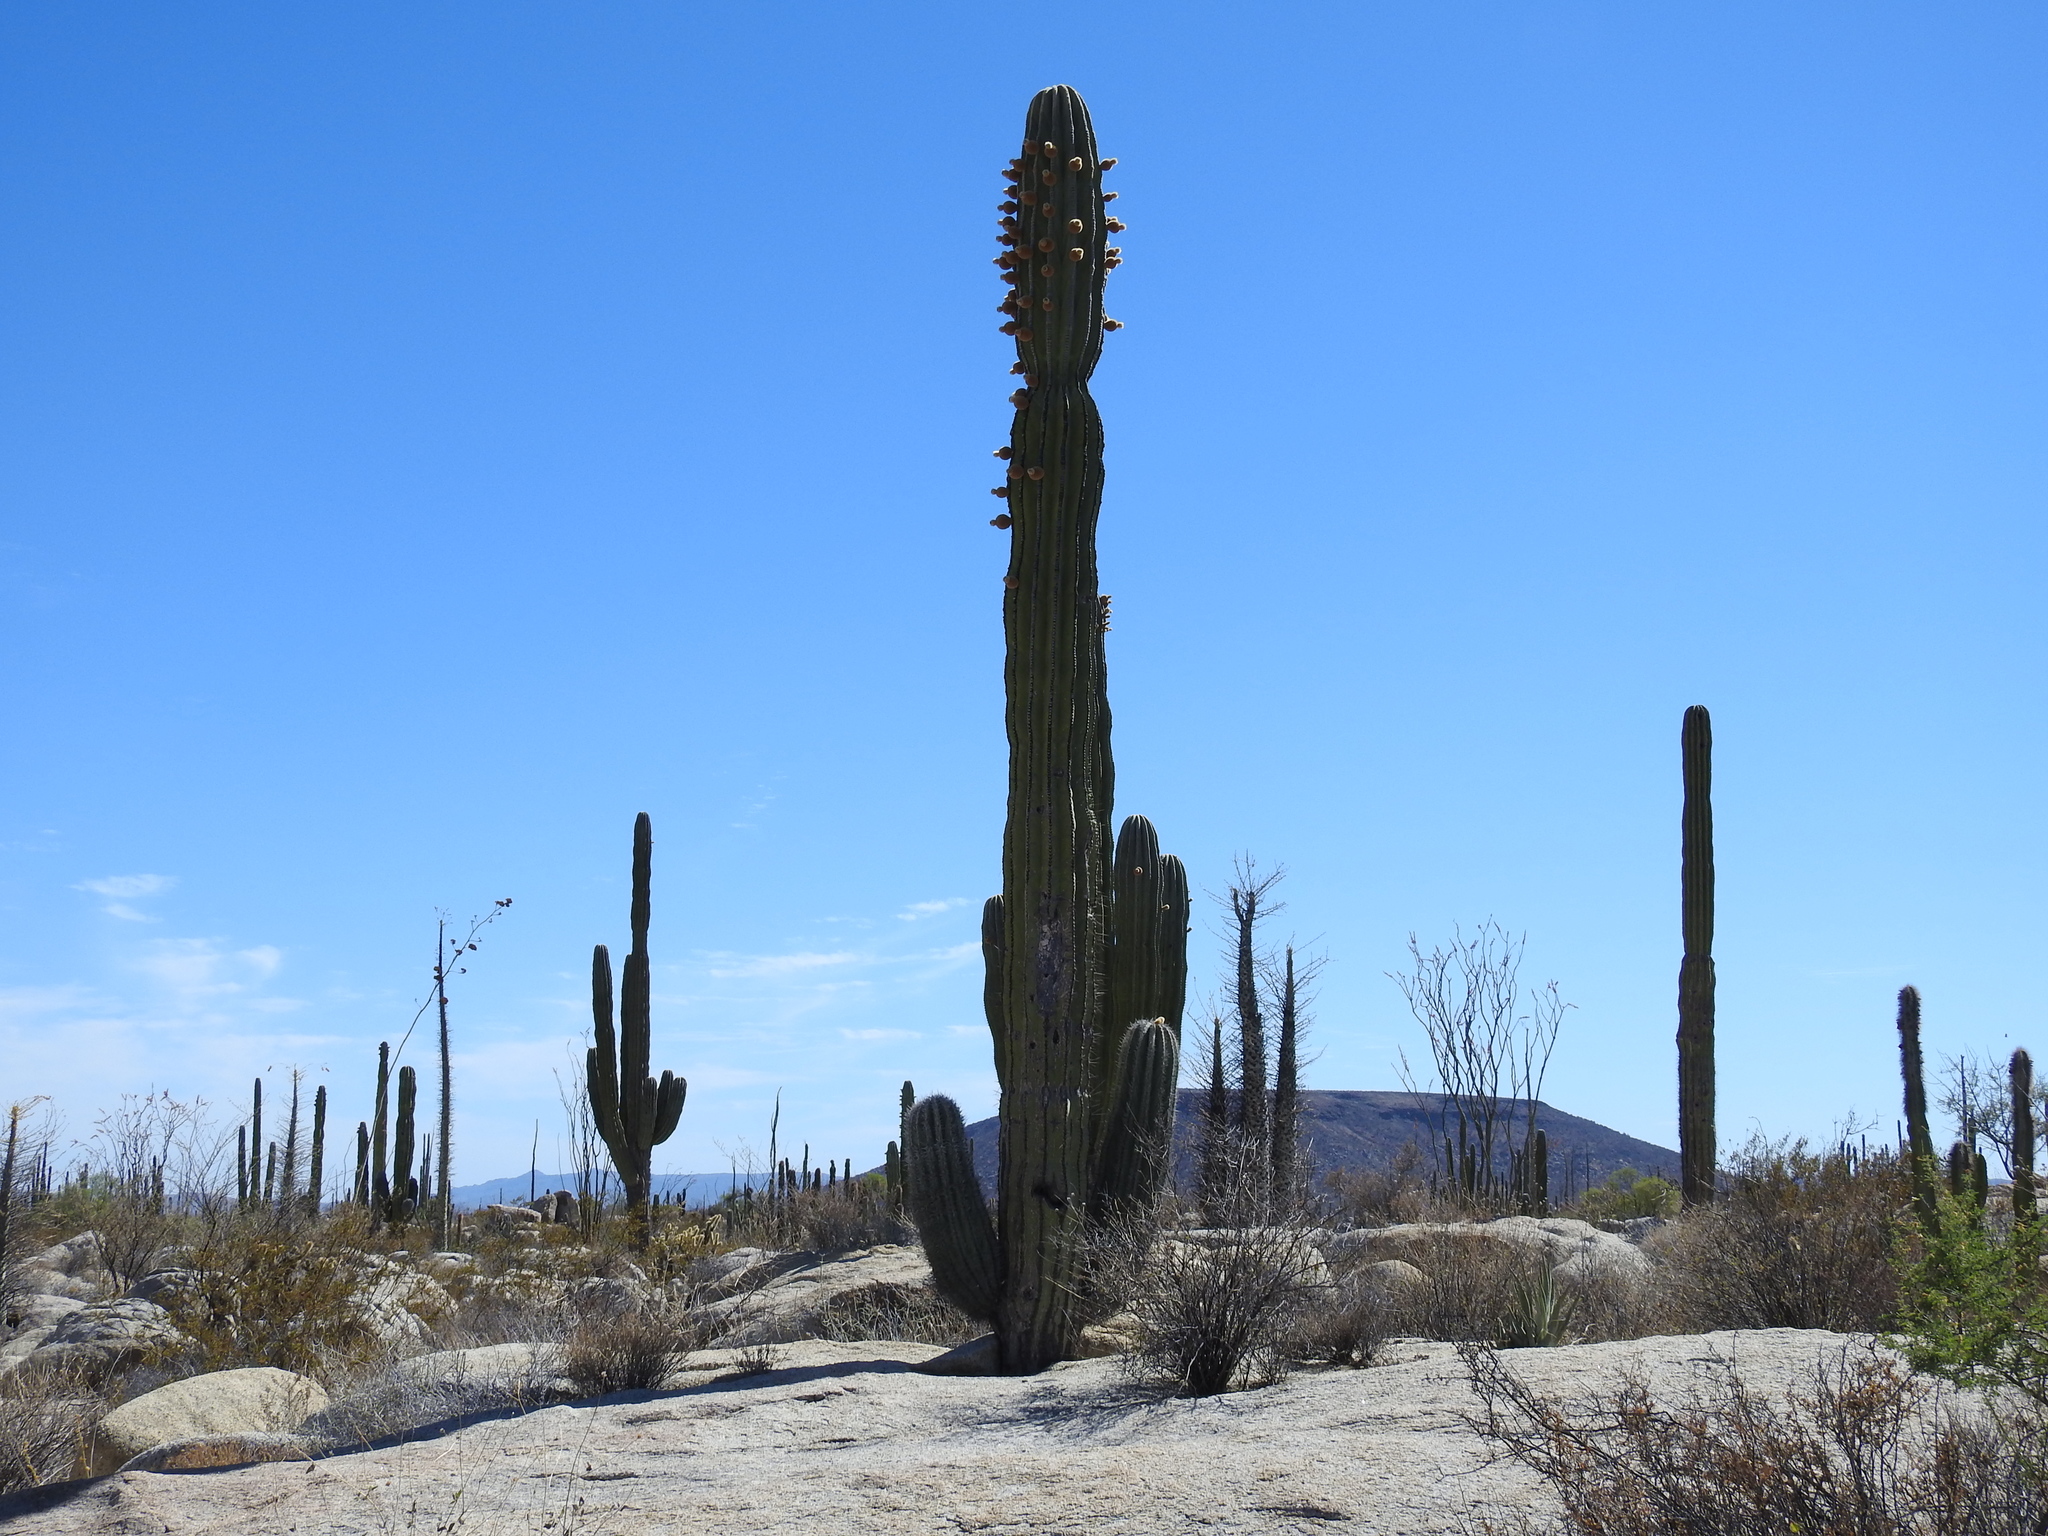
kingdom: Plantae
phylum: Tracheophyta
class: Magnoliopsida
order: Caryophyllales
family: Cactaceae
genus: Pachycereus
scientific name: Pachycereus pringlei
